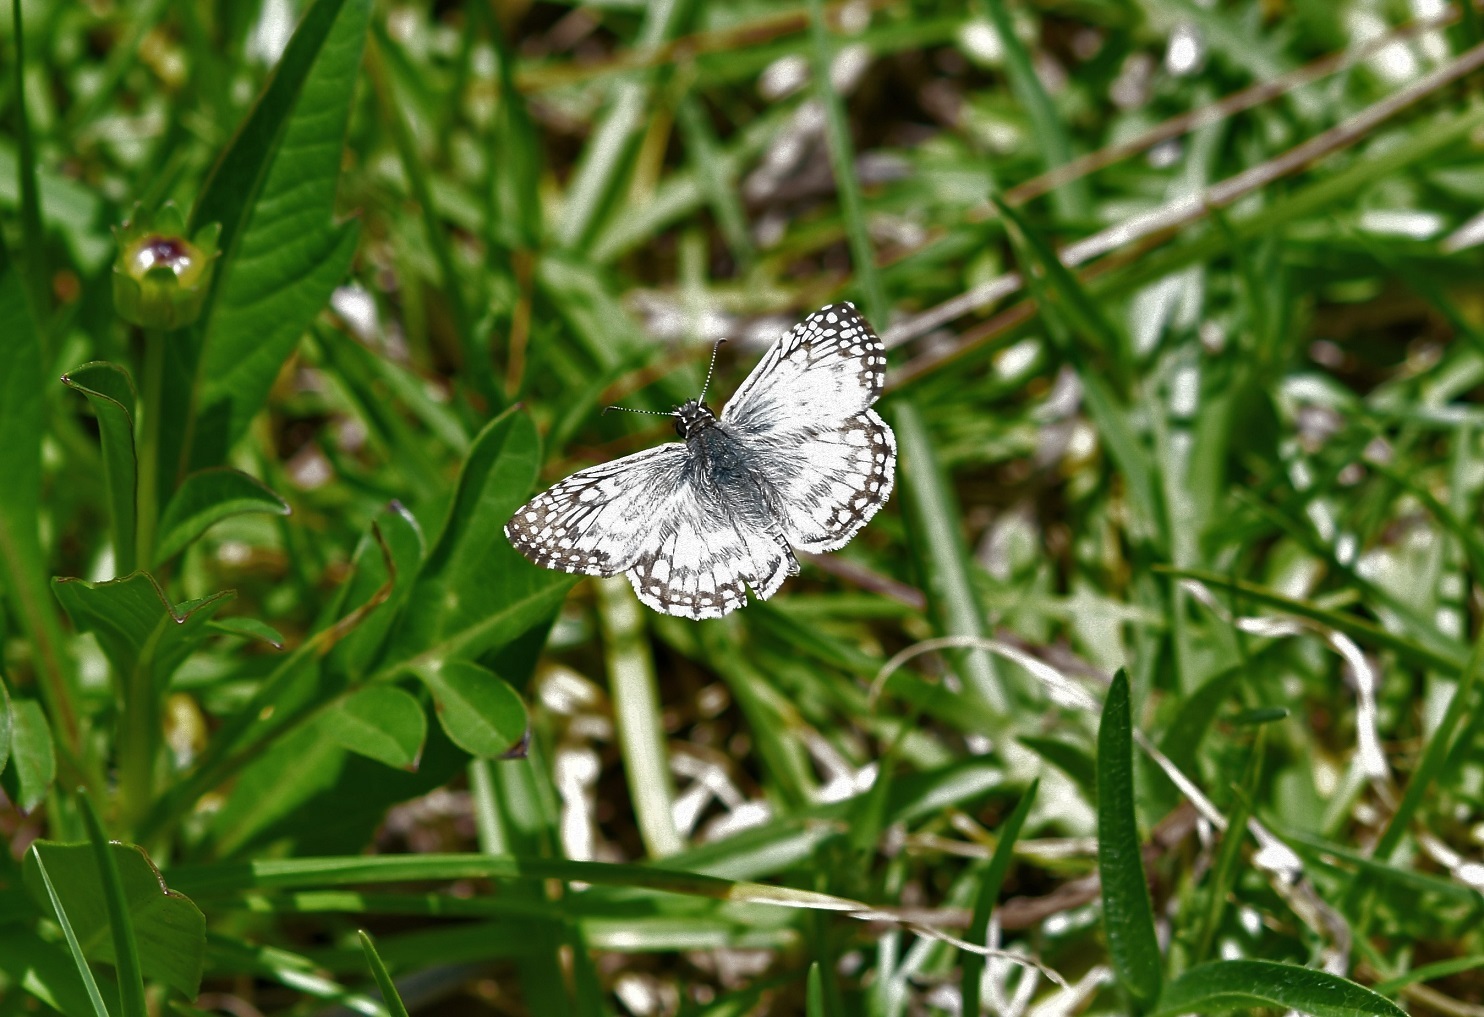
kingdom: Animalia
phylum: Arthropoda
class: Insecta
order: Lepidoptera
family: Hesperiidae
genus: Pyrgus
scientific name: Pyrgus oileus
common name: Tropical checkered-skipper
